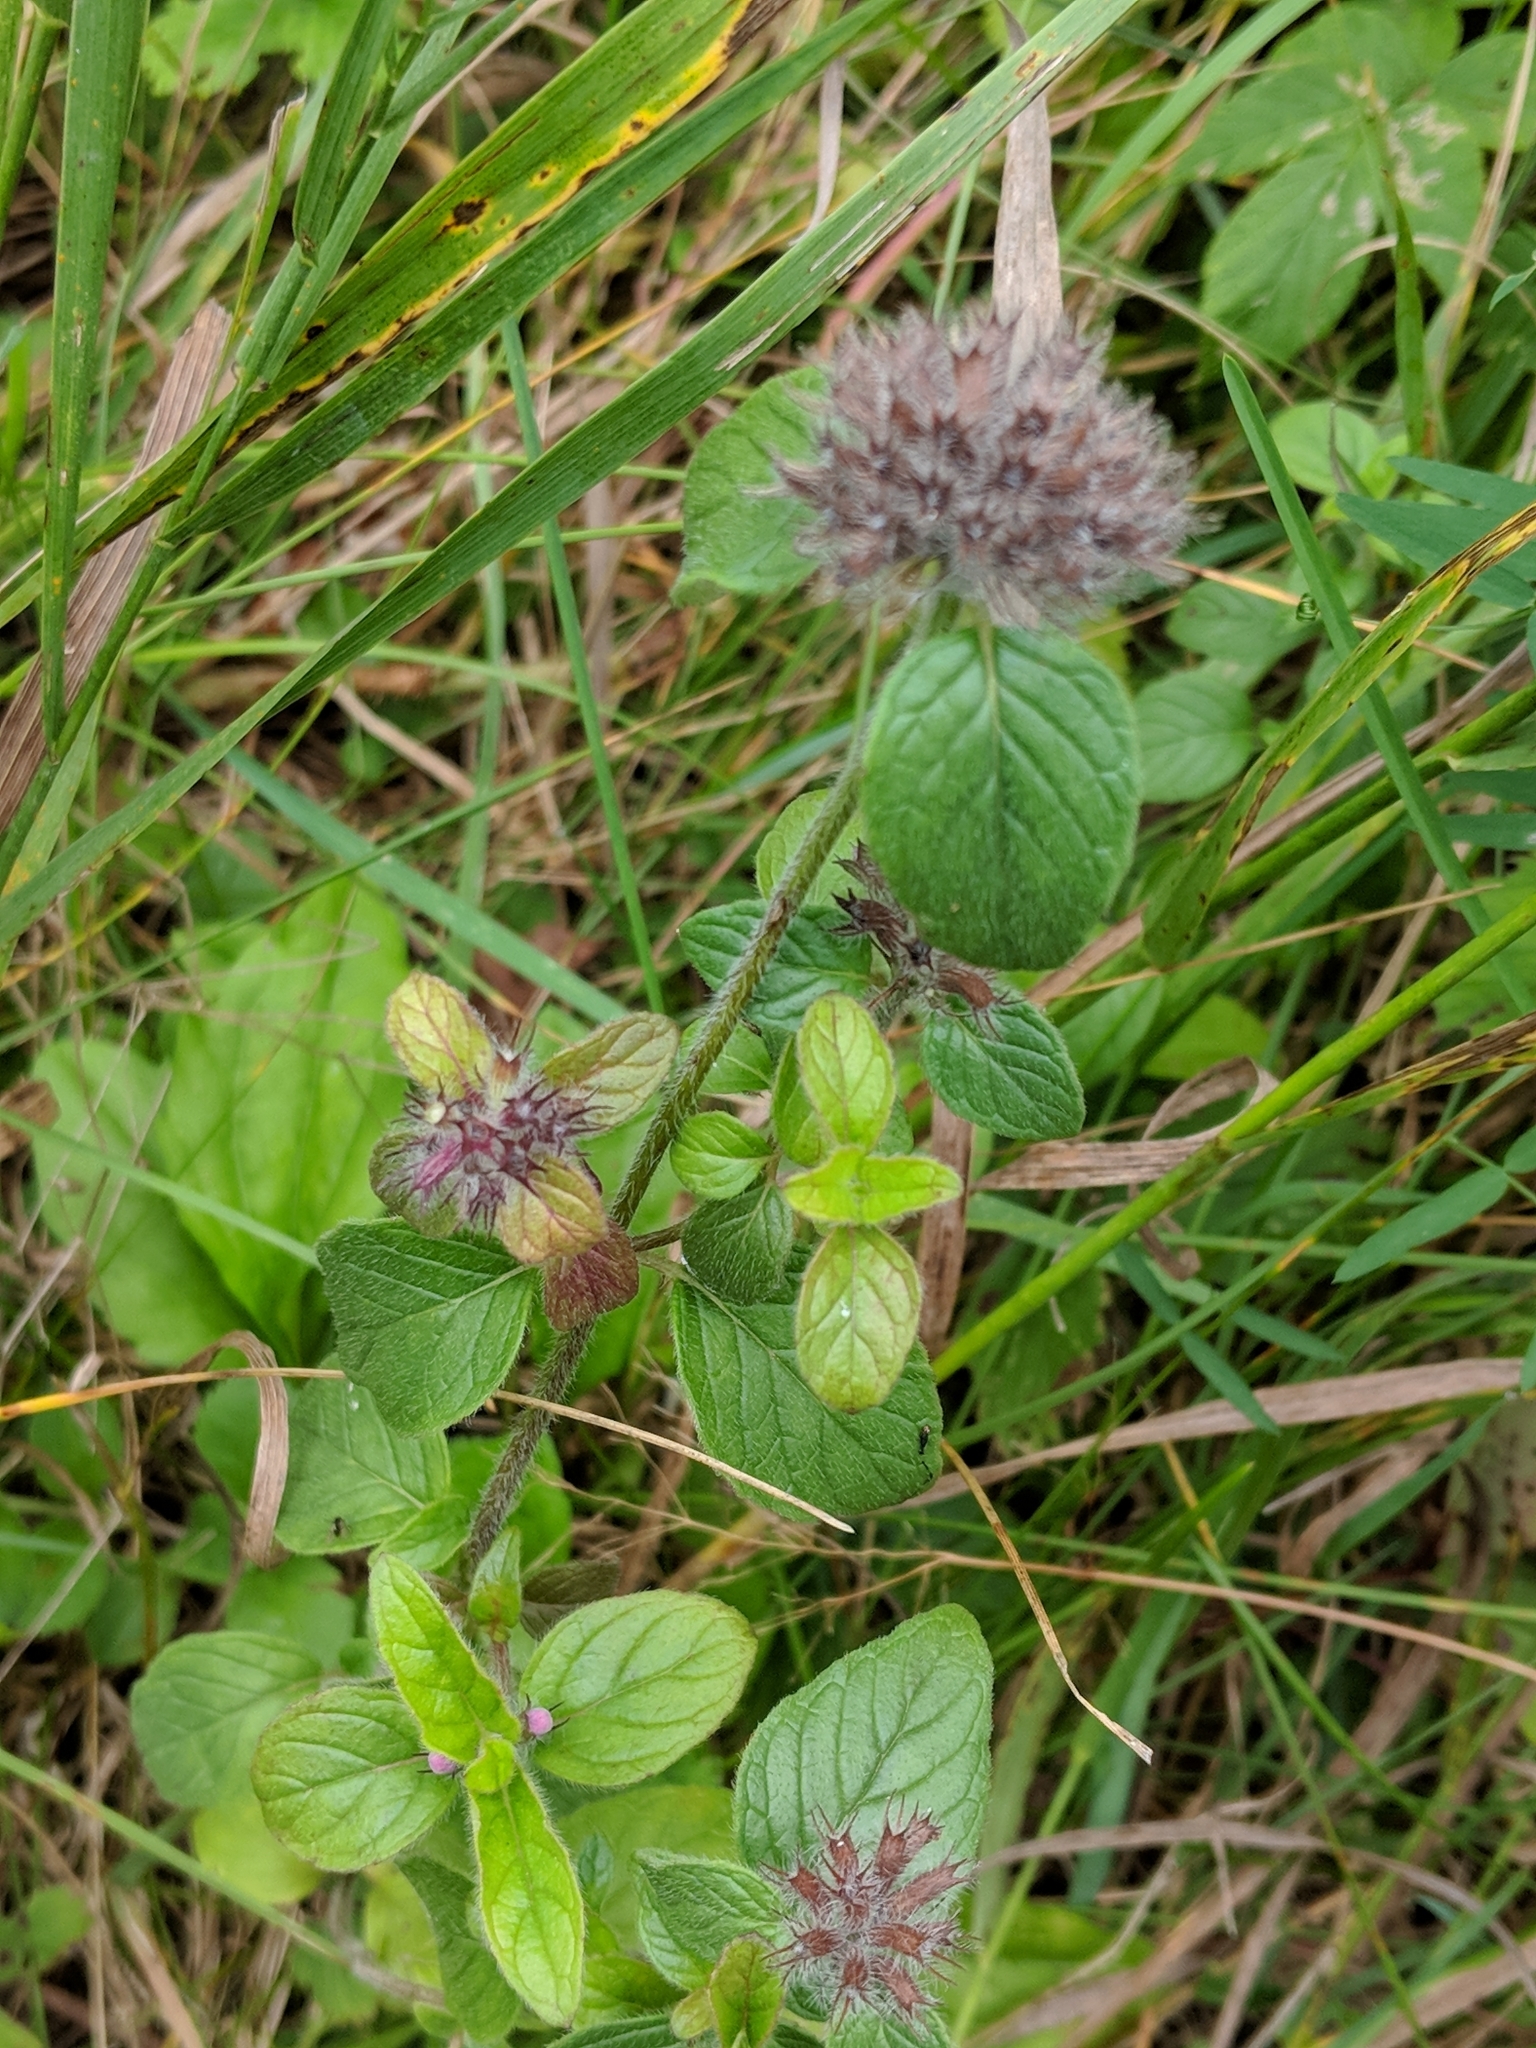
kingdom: Plantae
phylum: Tracheophyta
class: Magnoliopsida
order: Lamiales
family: Lamiaceae
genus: Clinopodium
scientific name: Clinopodium vulgare
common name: Wild basil
